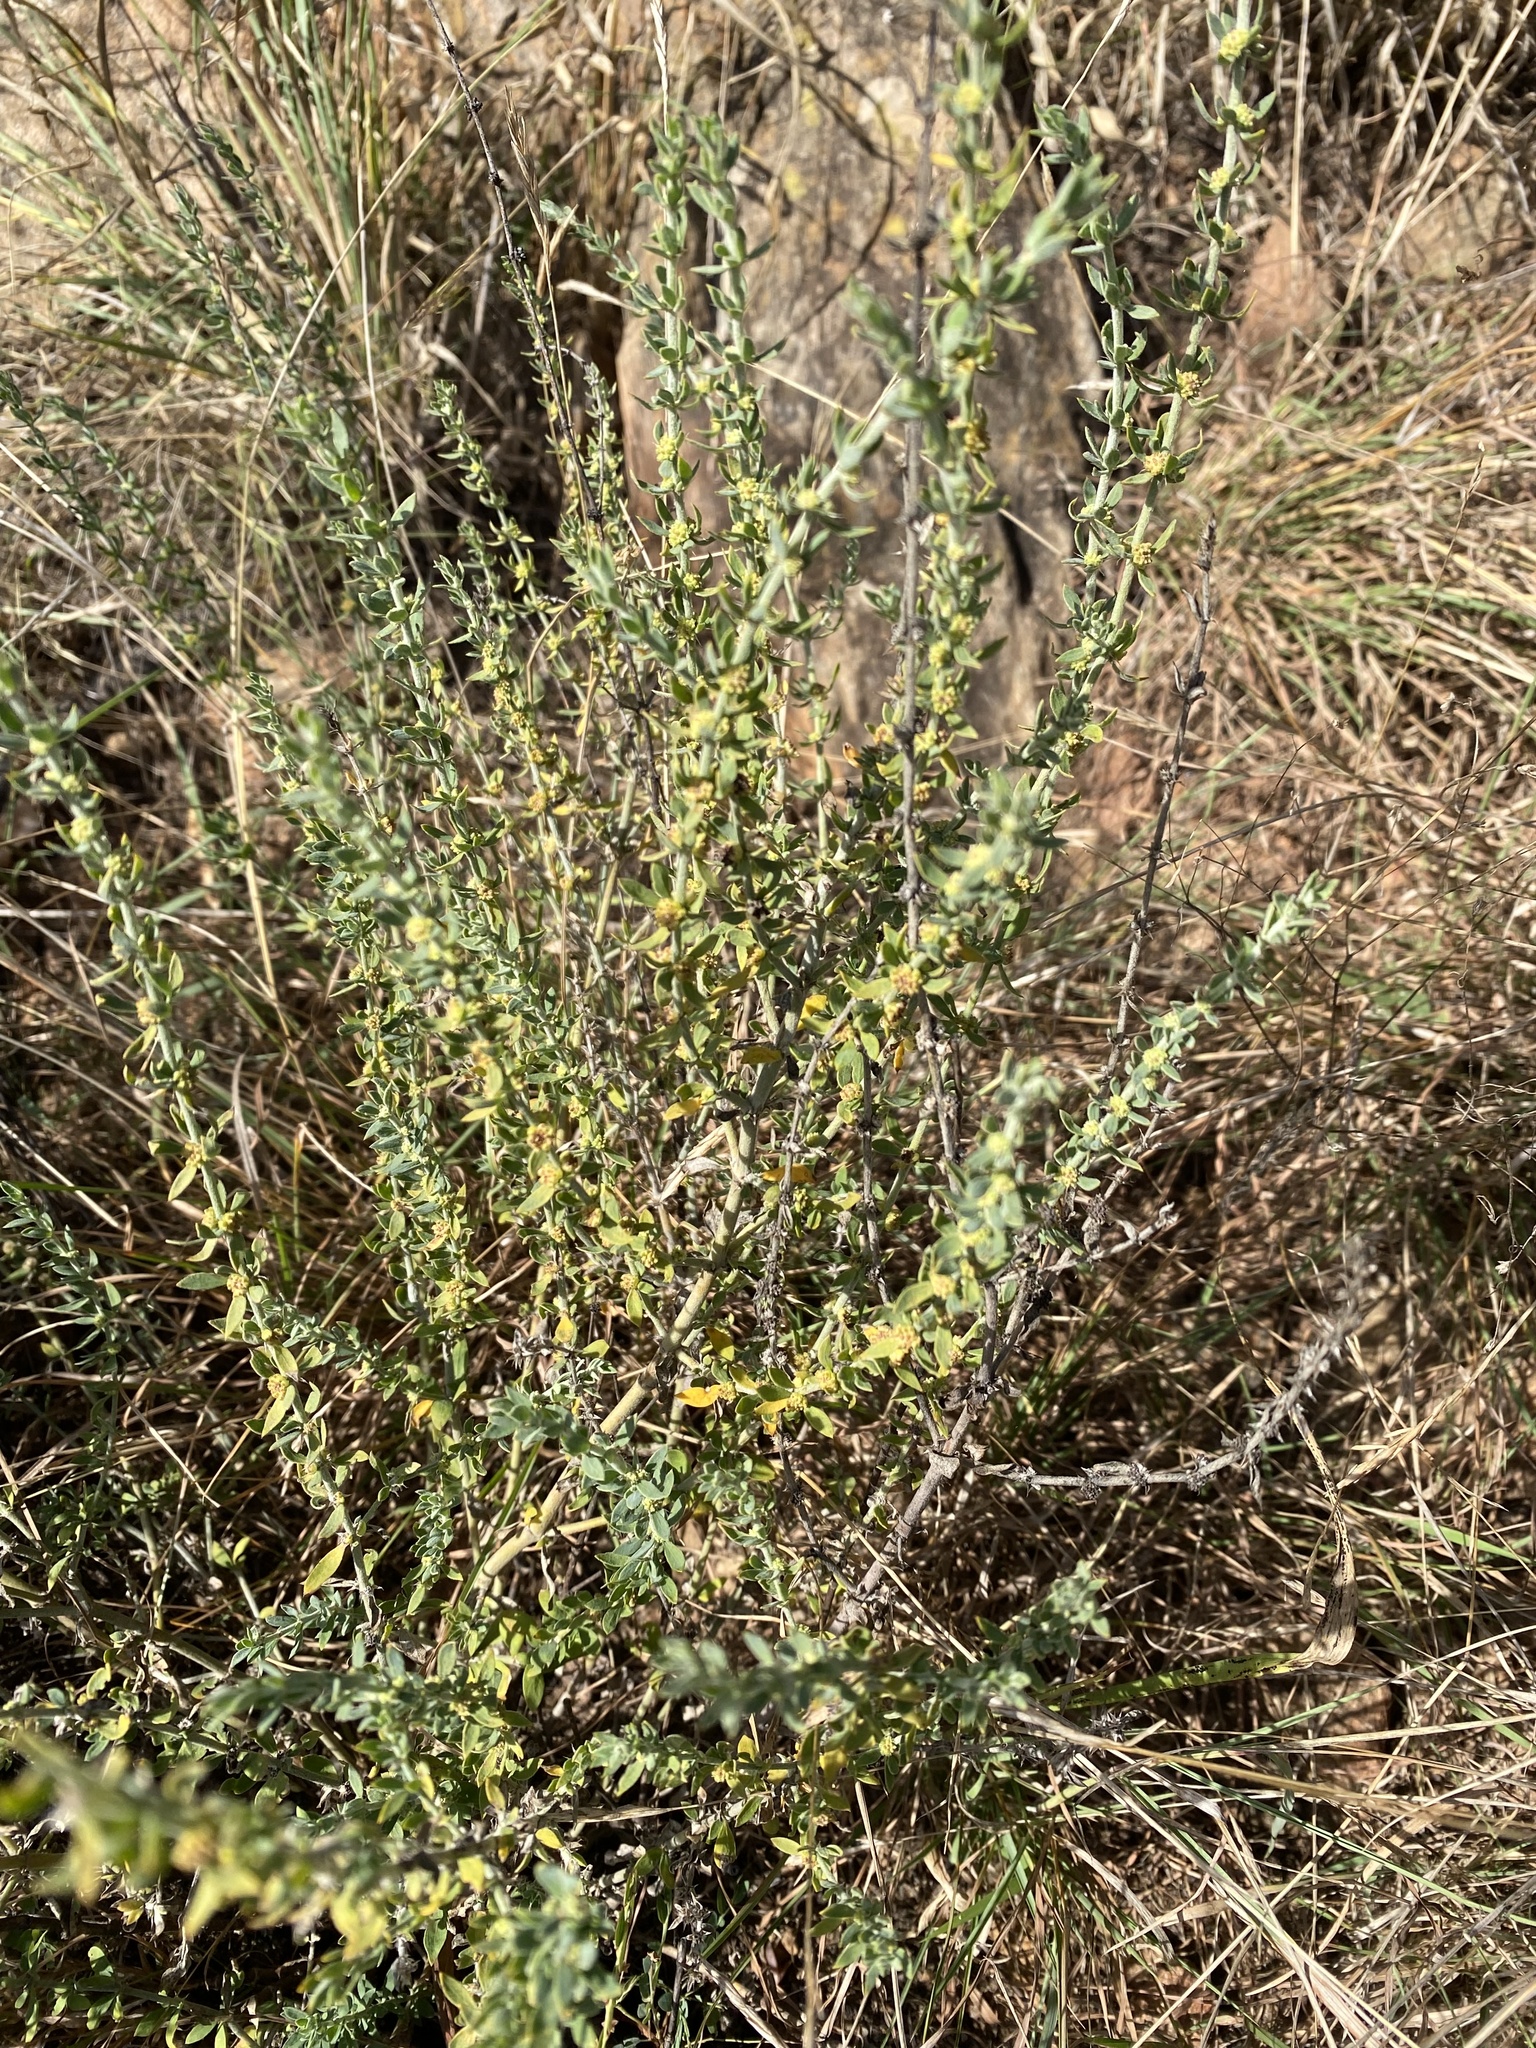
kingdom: Plantae
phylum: Tracheophyta
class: Magnoliopsida
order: Caryophyllales
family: Caryophyllaceae
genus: Pollichia
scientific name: Pollichia campestris
